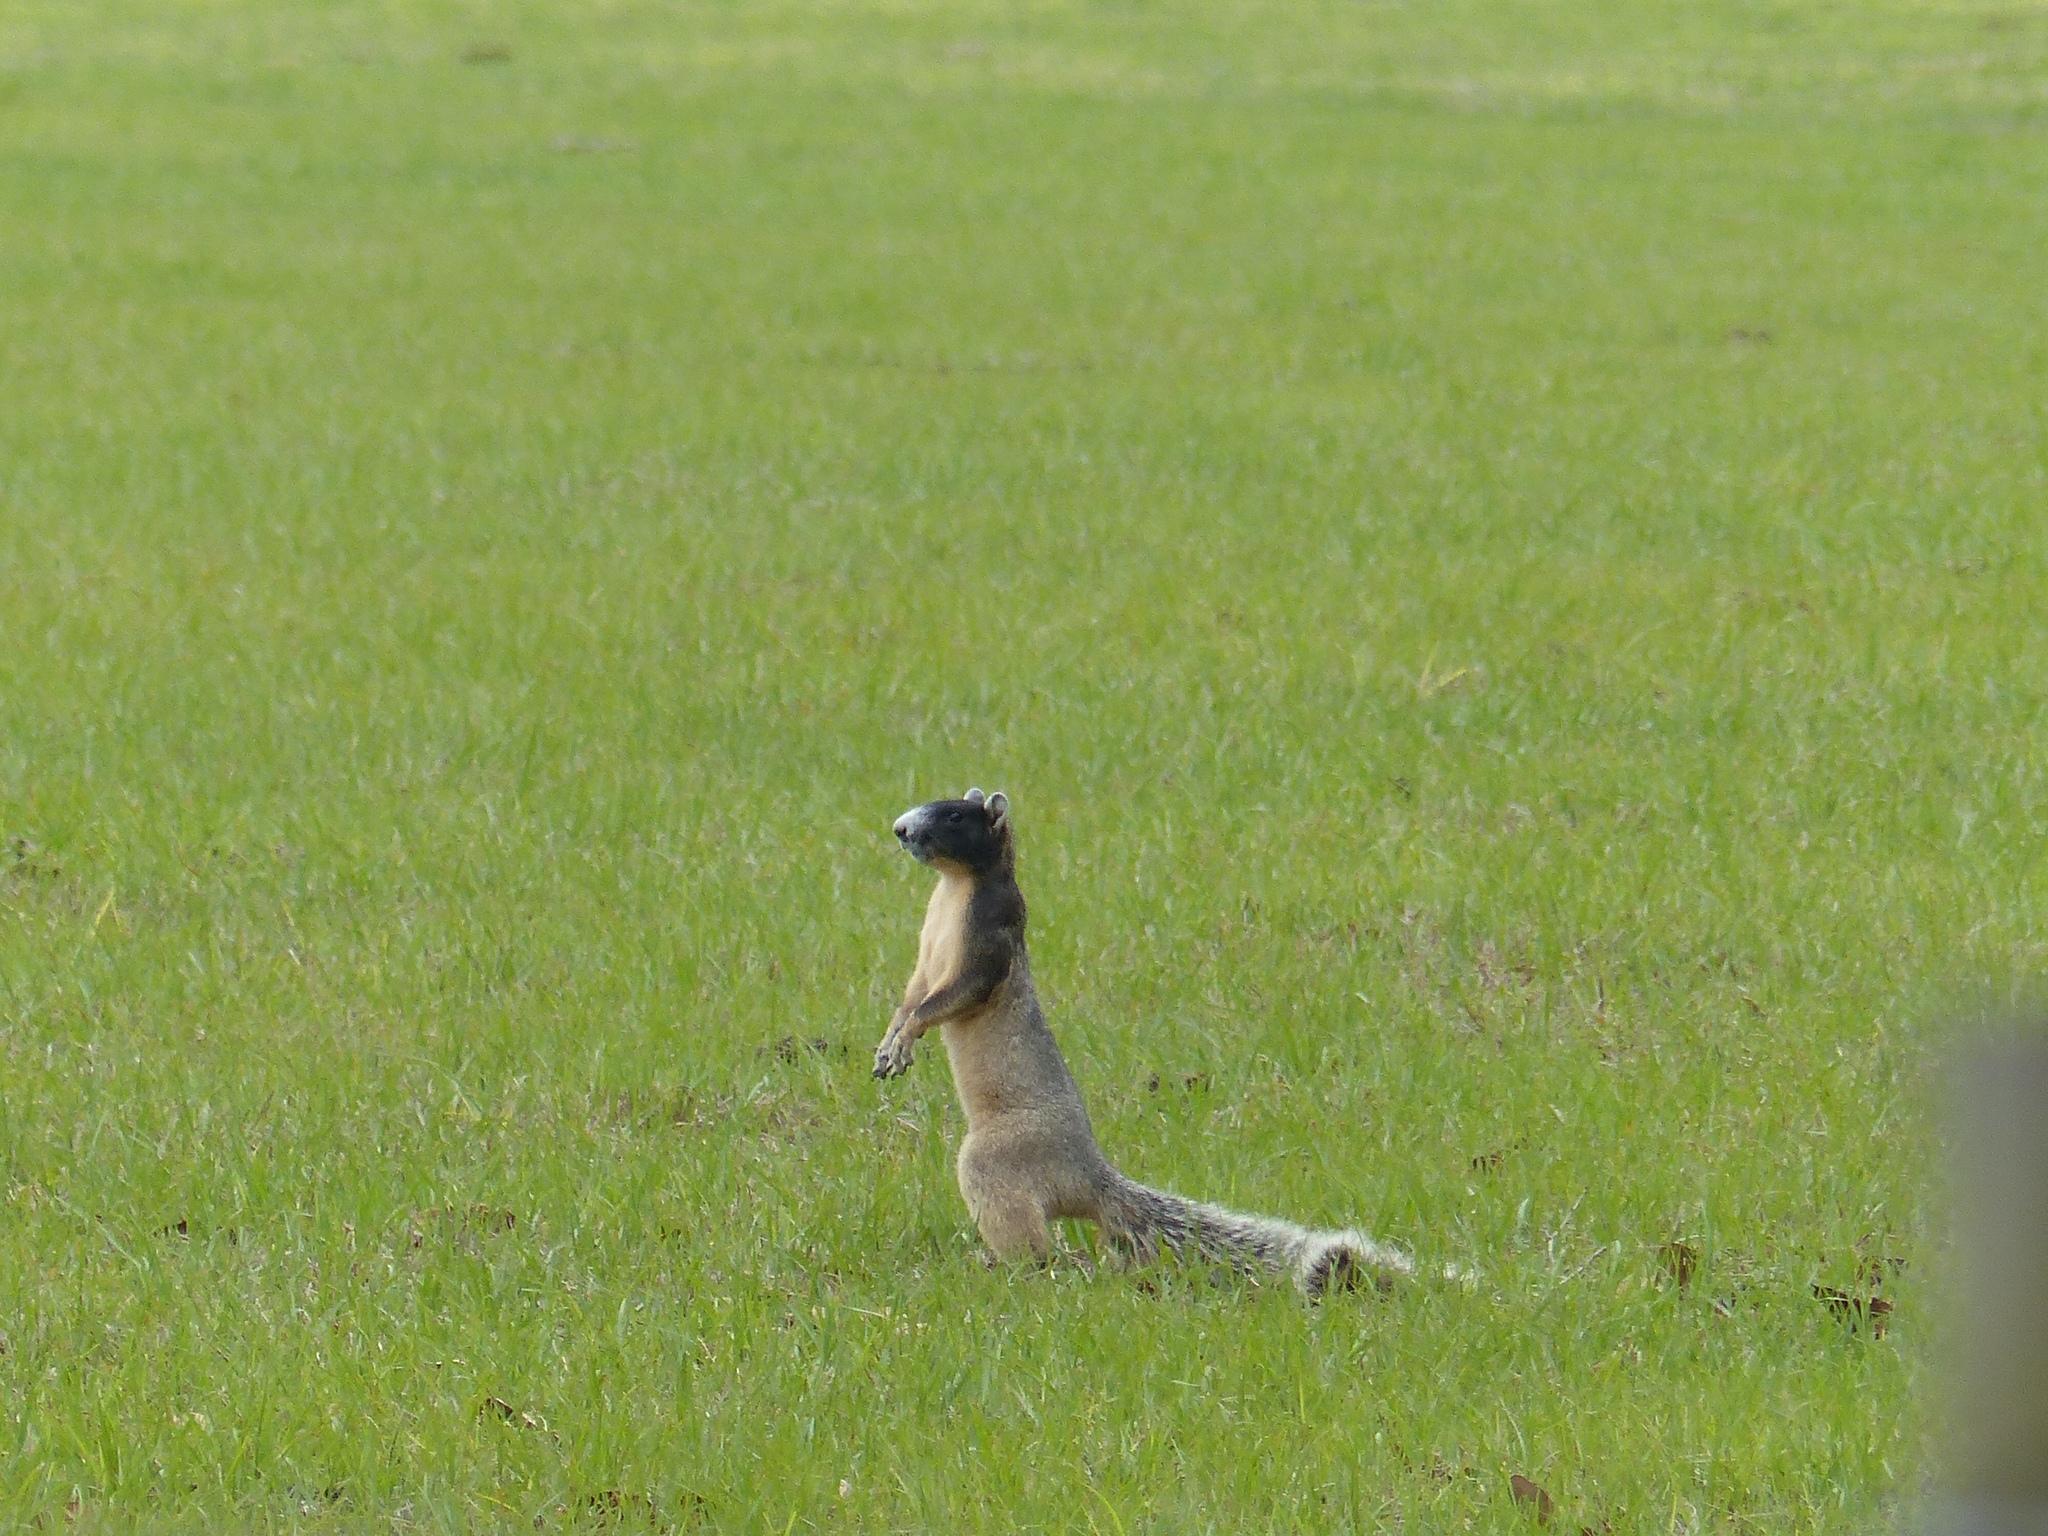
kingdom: Animalia
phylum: Chordata
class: Mammalia
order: Rodentia
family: Sciuridae
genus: Sciurus
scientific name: Sciurus niger
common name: Fox squirrel
